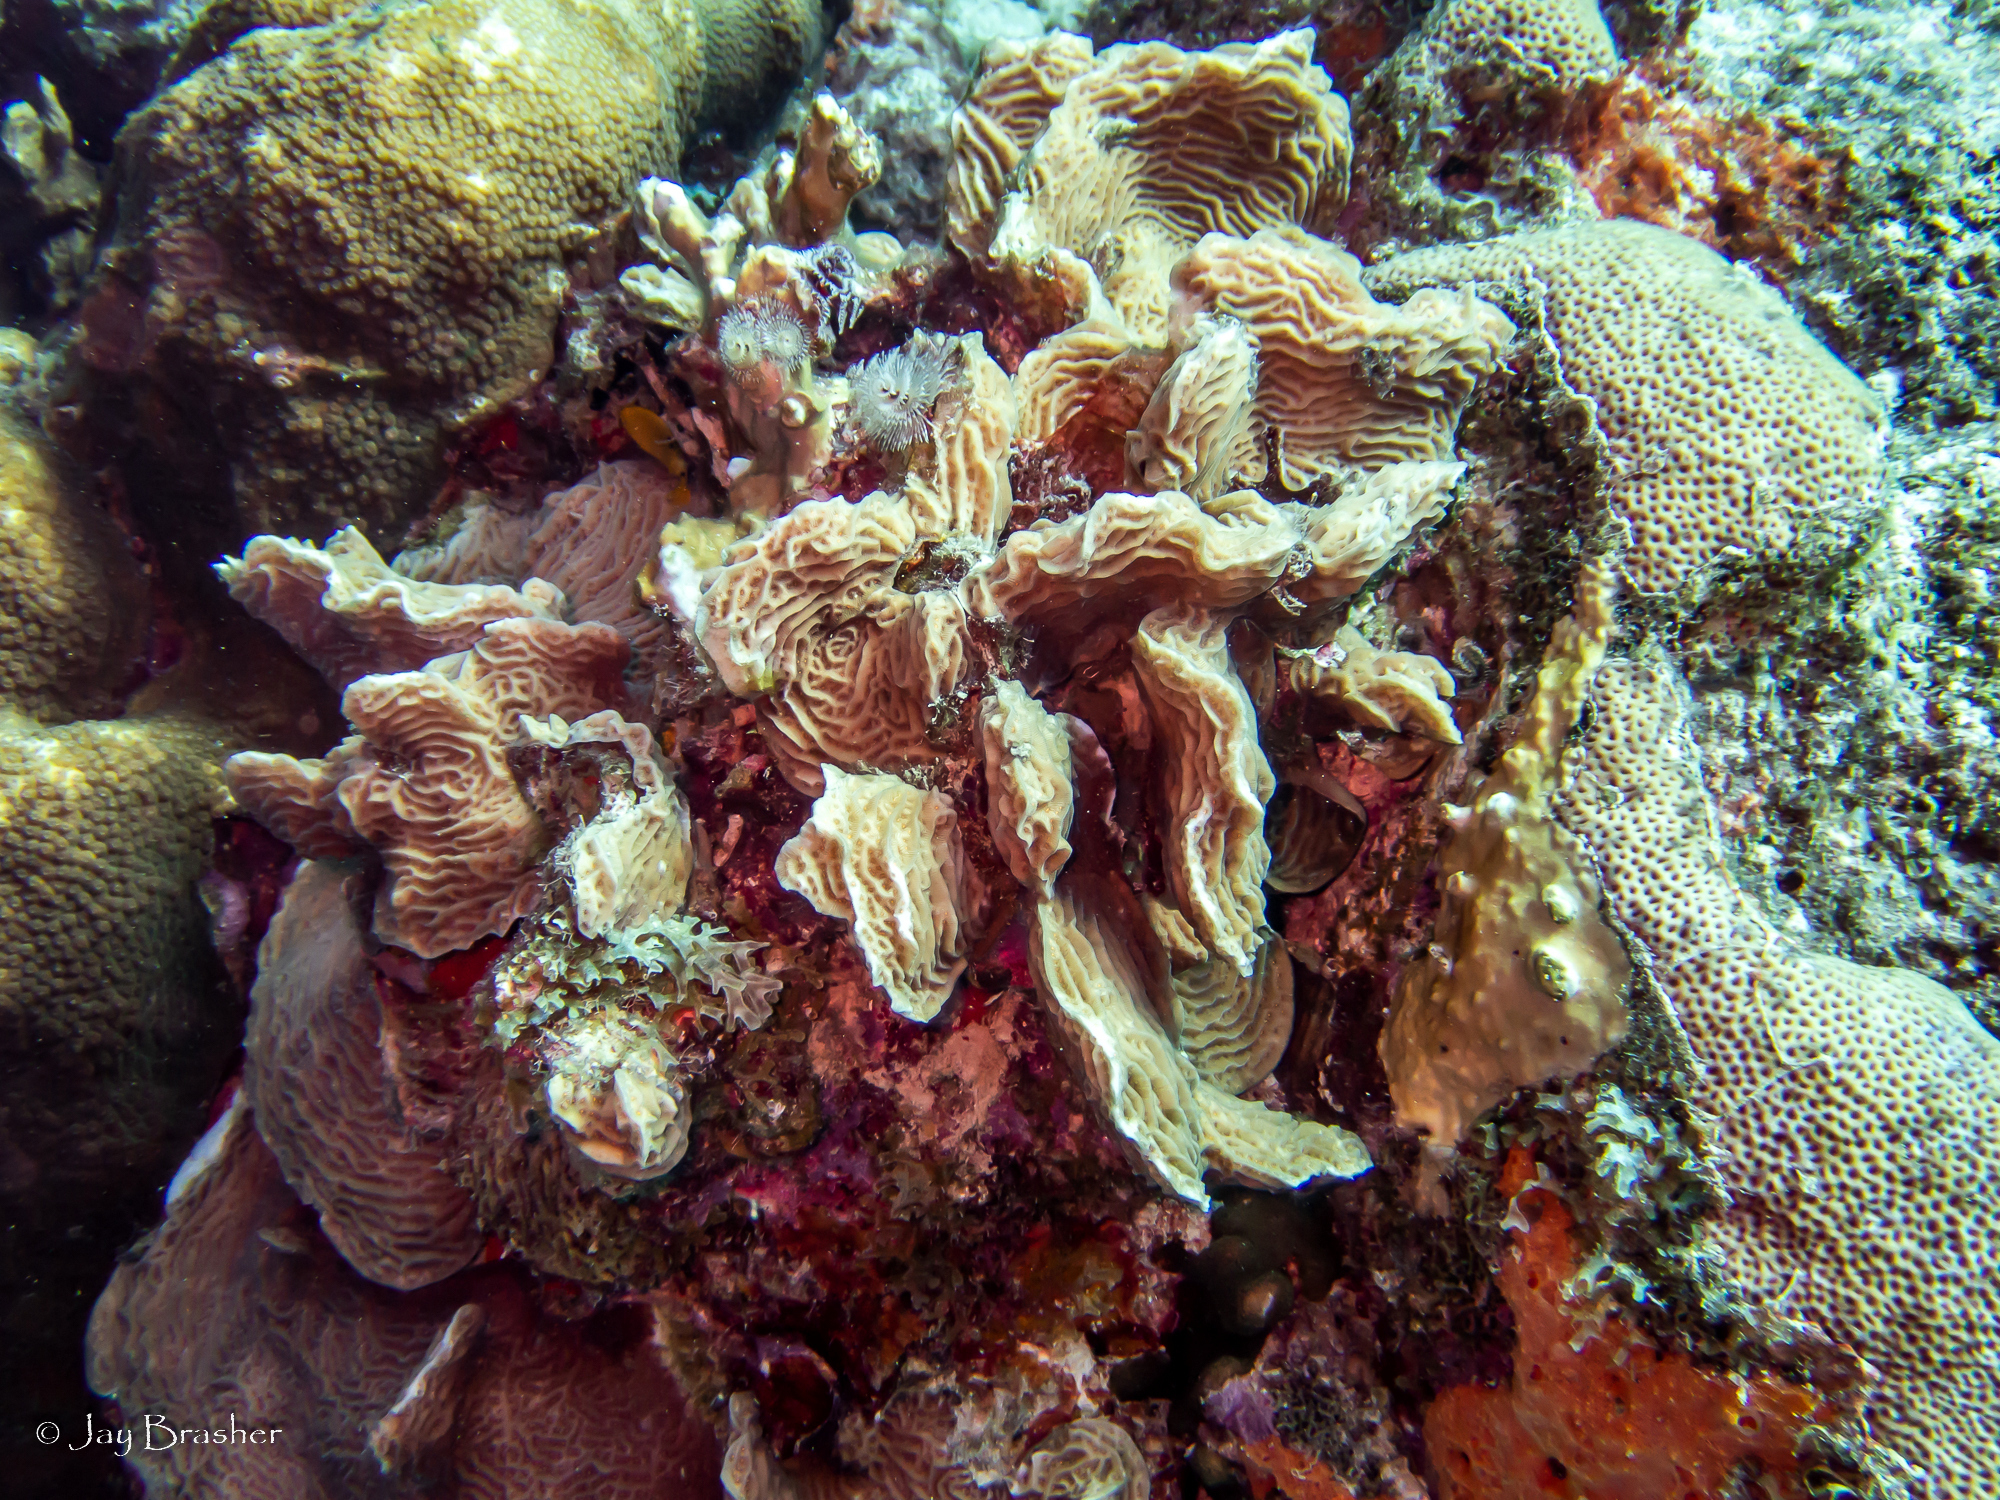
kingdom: Animalia
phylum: Porifera
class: Demospongiae
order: Scopalinida
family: Scopalinidae
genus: Scopalina
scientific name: Scopalina ruetzleri
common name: Orange lumpy encrusting sponge
